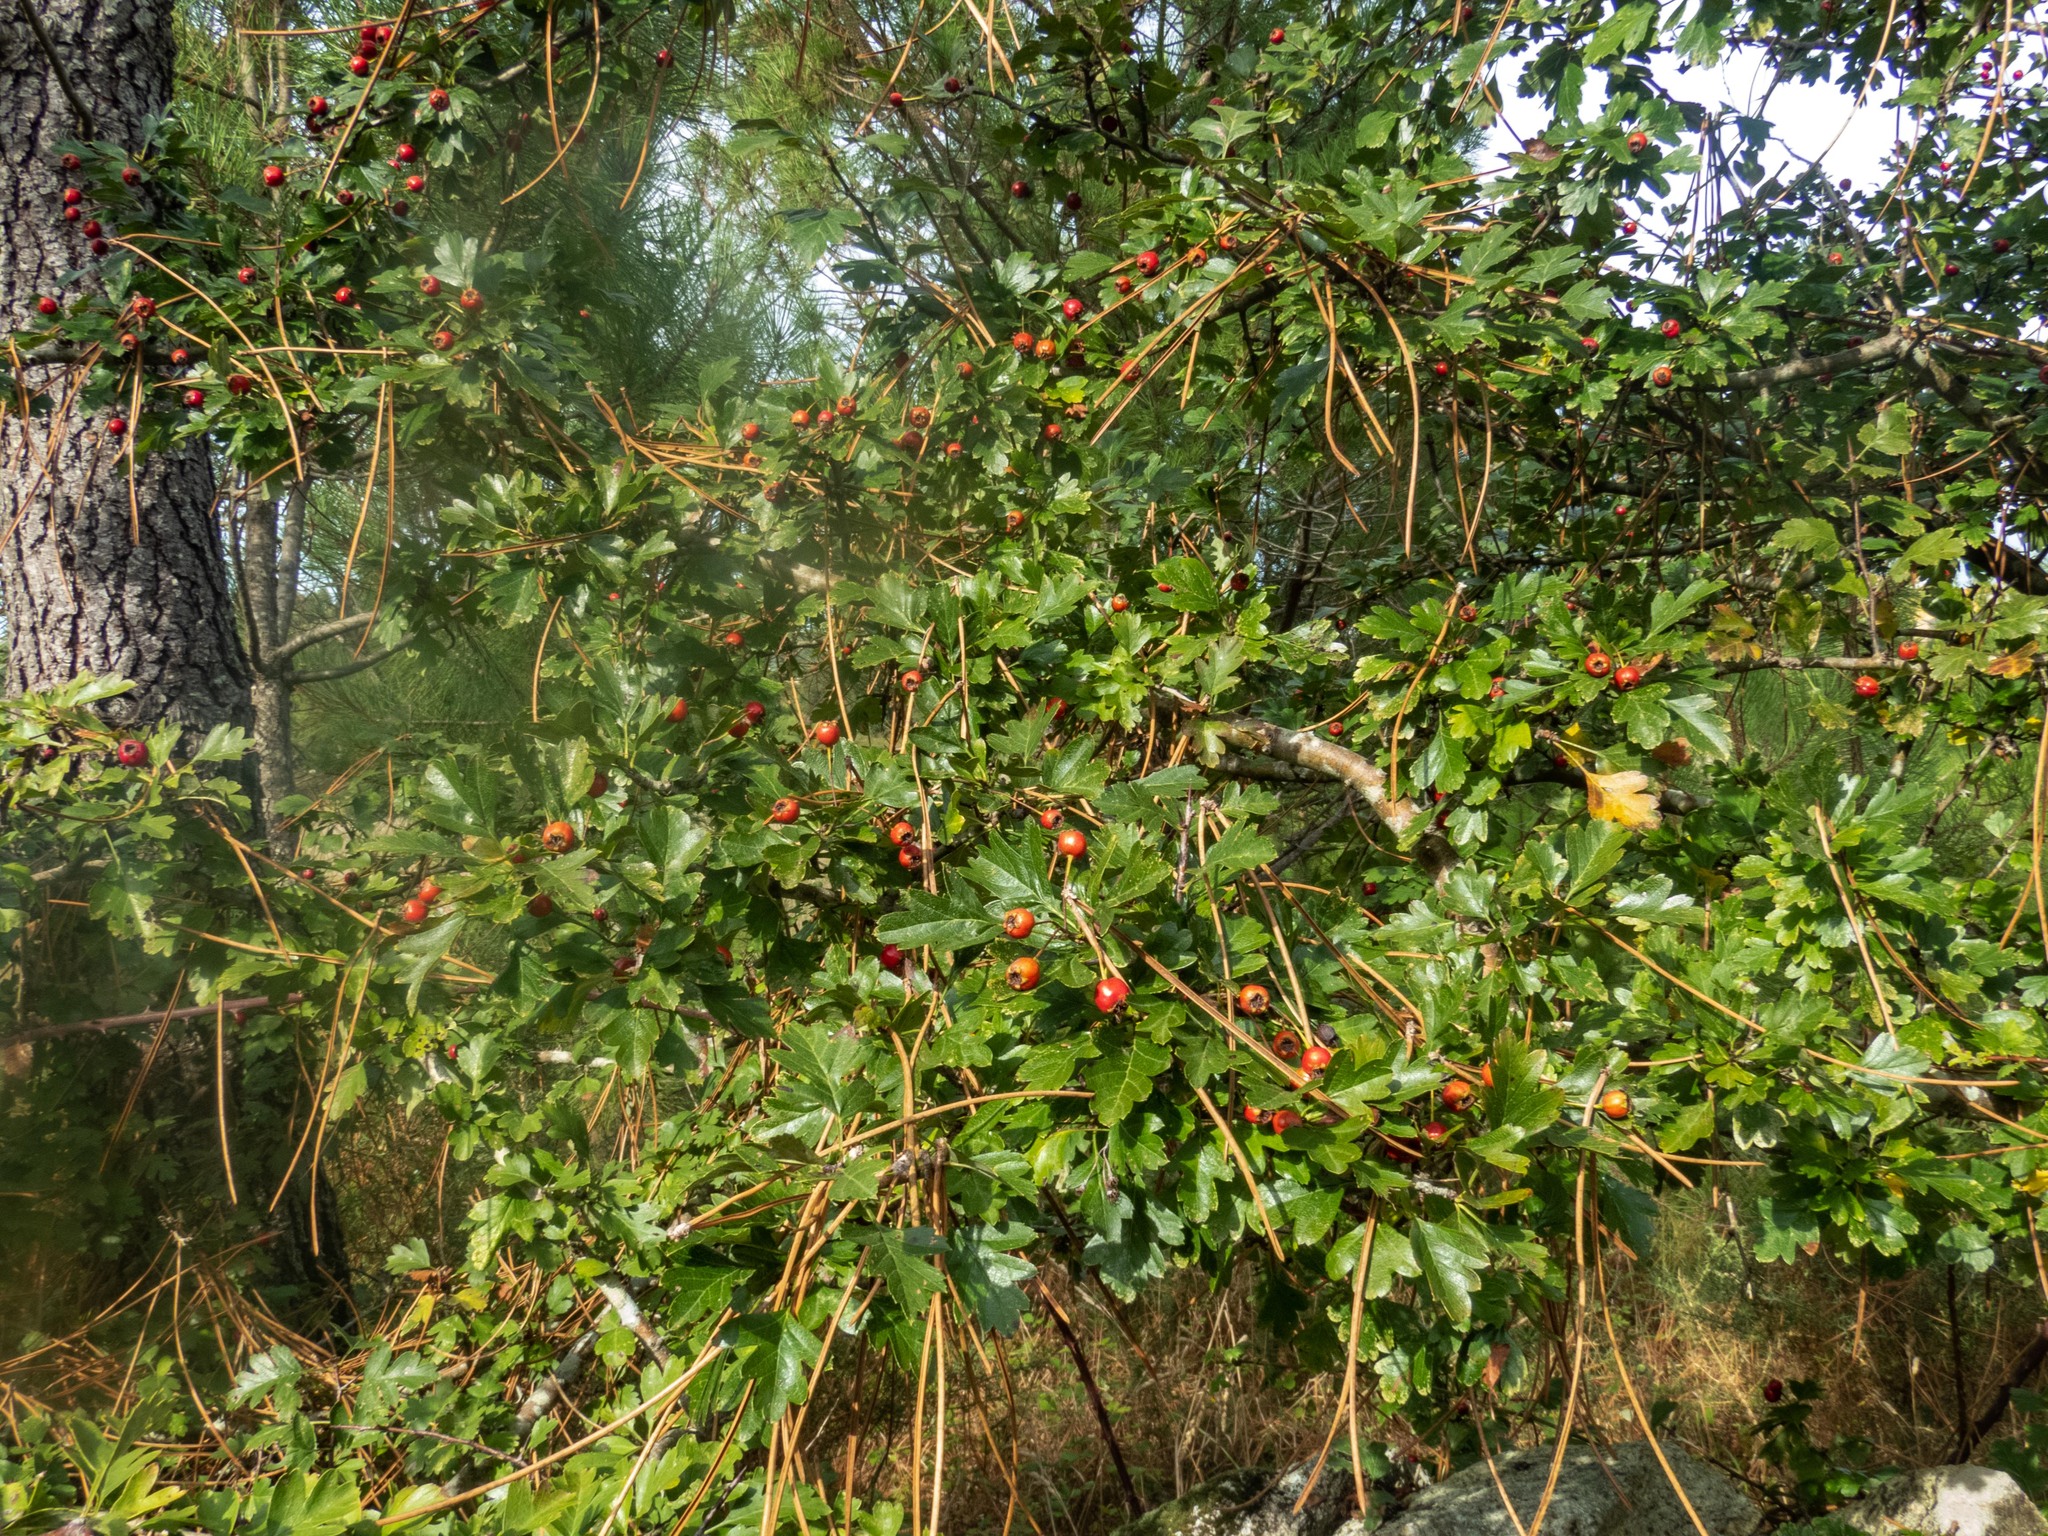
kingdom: Plantae
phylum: Tracheophyta
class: Magnoliopsida
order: Rosales
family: Rosaceae
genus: Crataegus
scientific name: Crataegus monogyna
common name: Hawthorn
